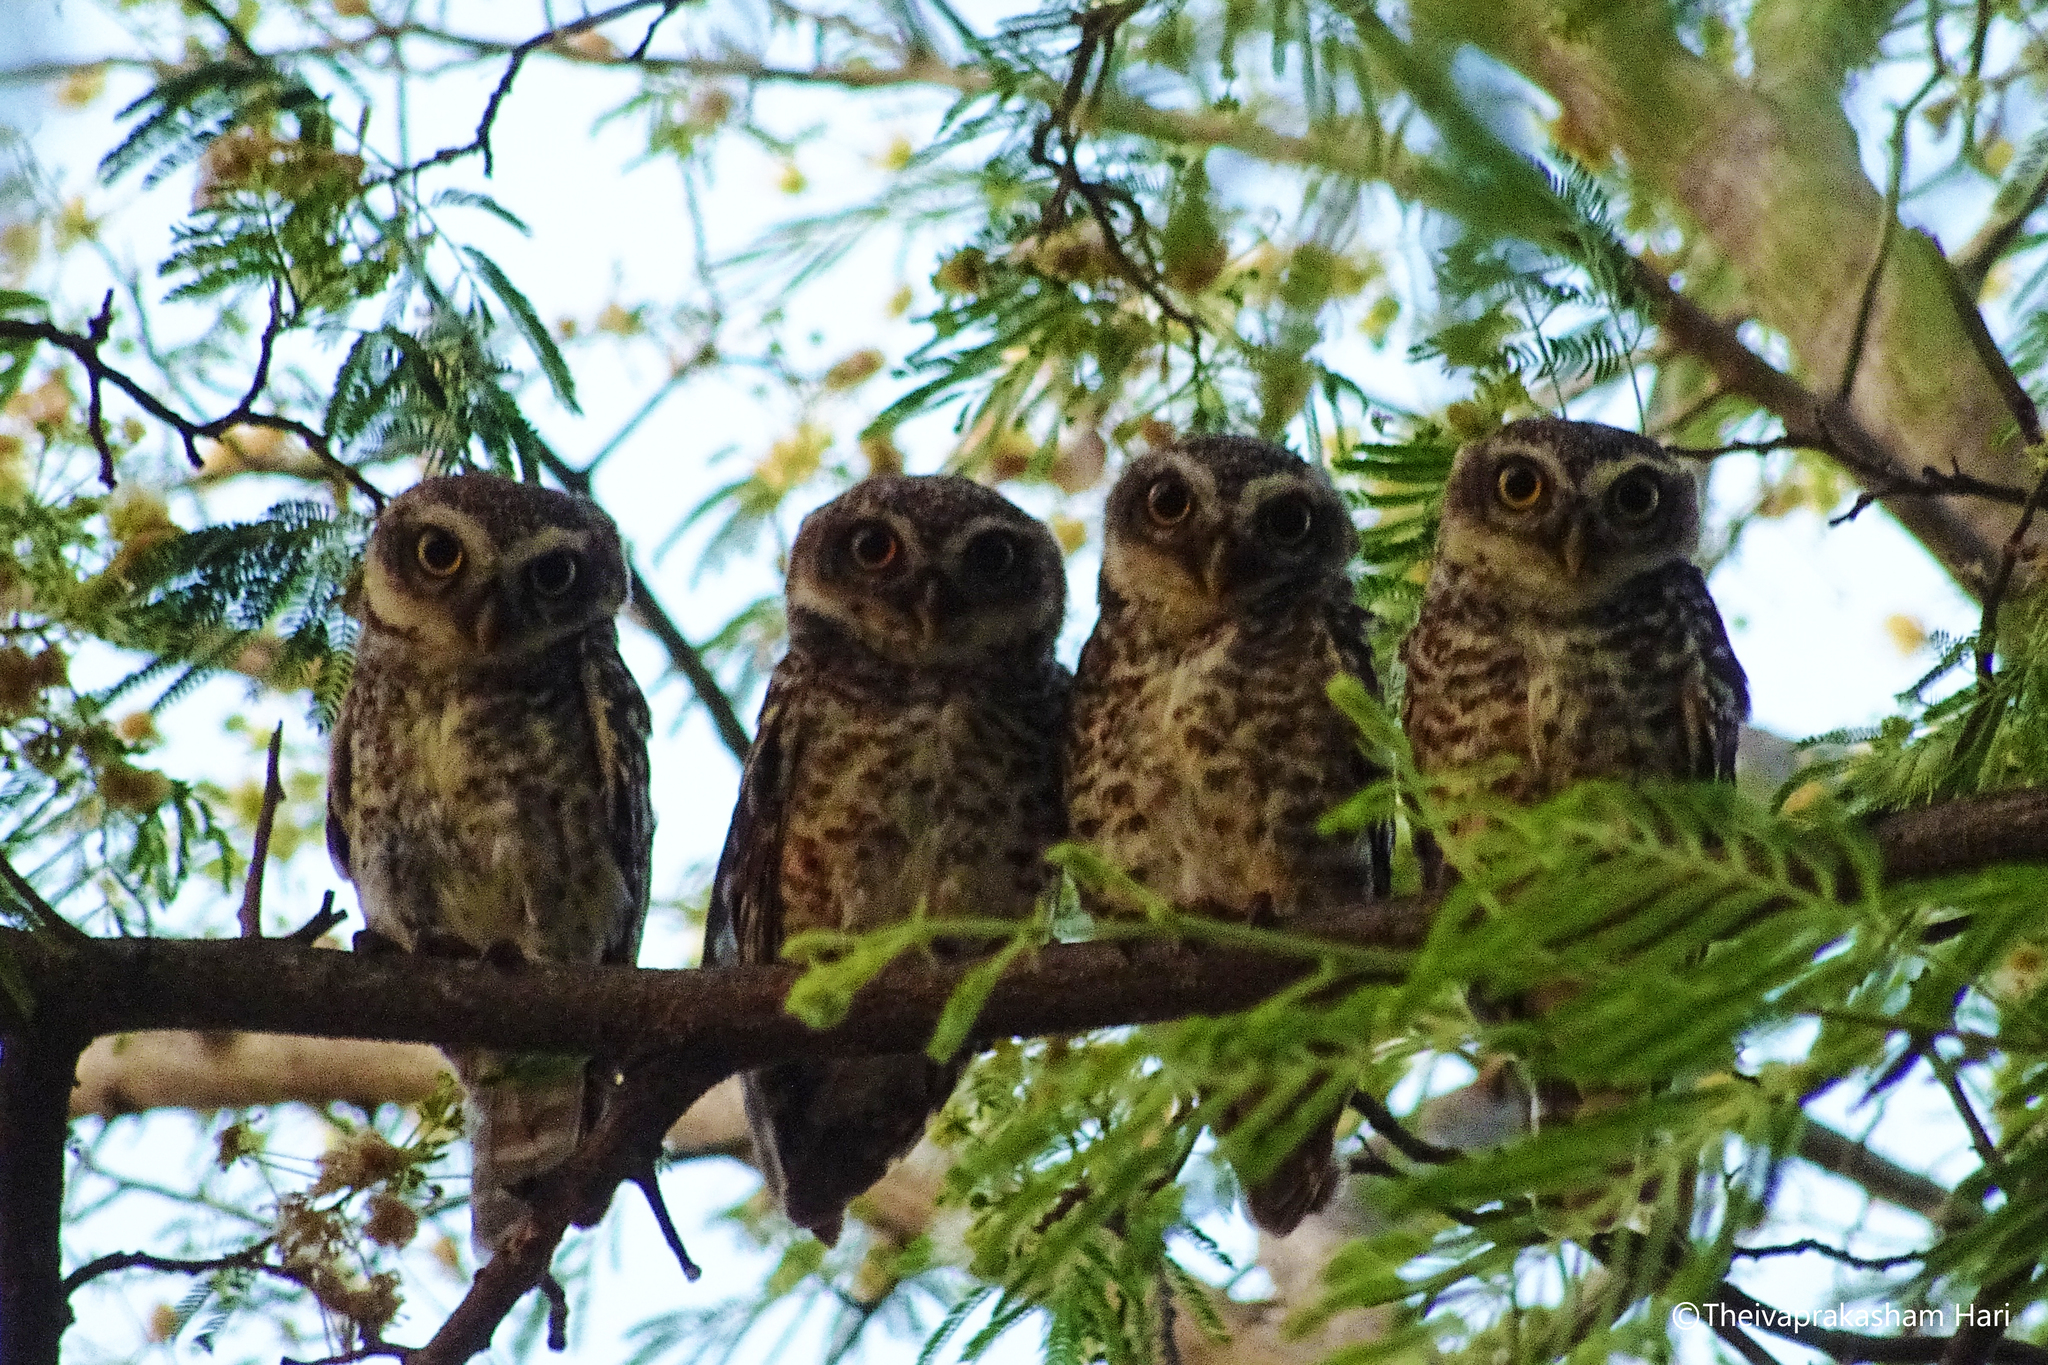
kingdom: Animalia
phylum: Chordata
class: Aves
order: Strigiformes
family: Strigidae
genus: Athene
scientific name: Athene brama
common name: Spotted owlet
